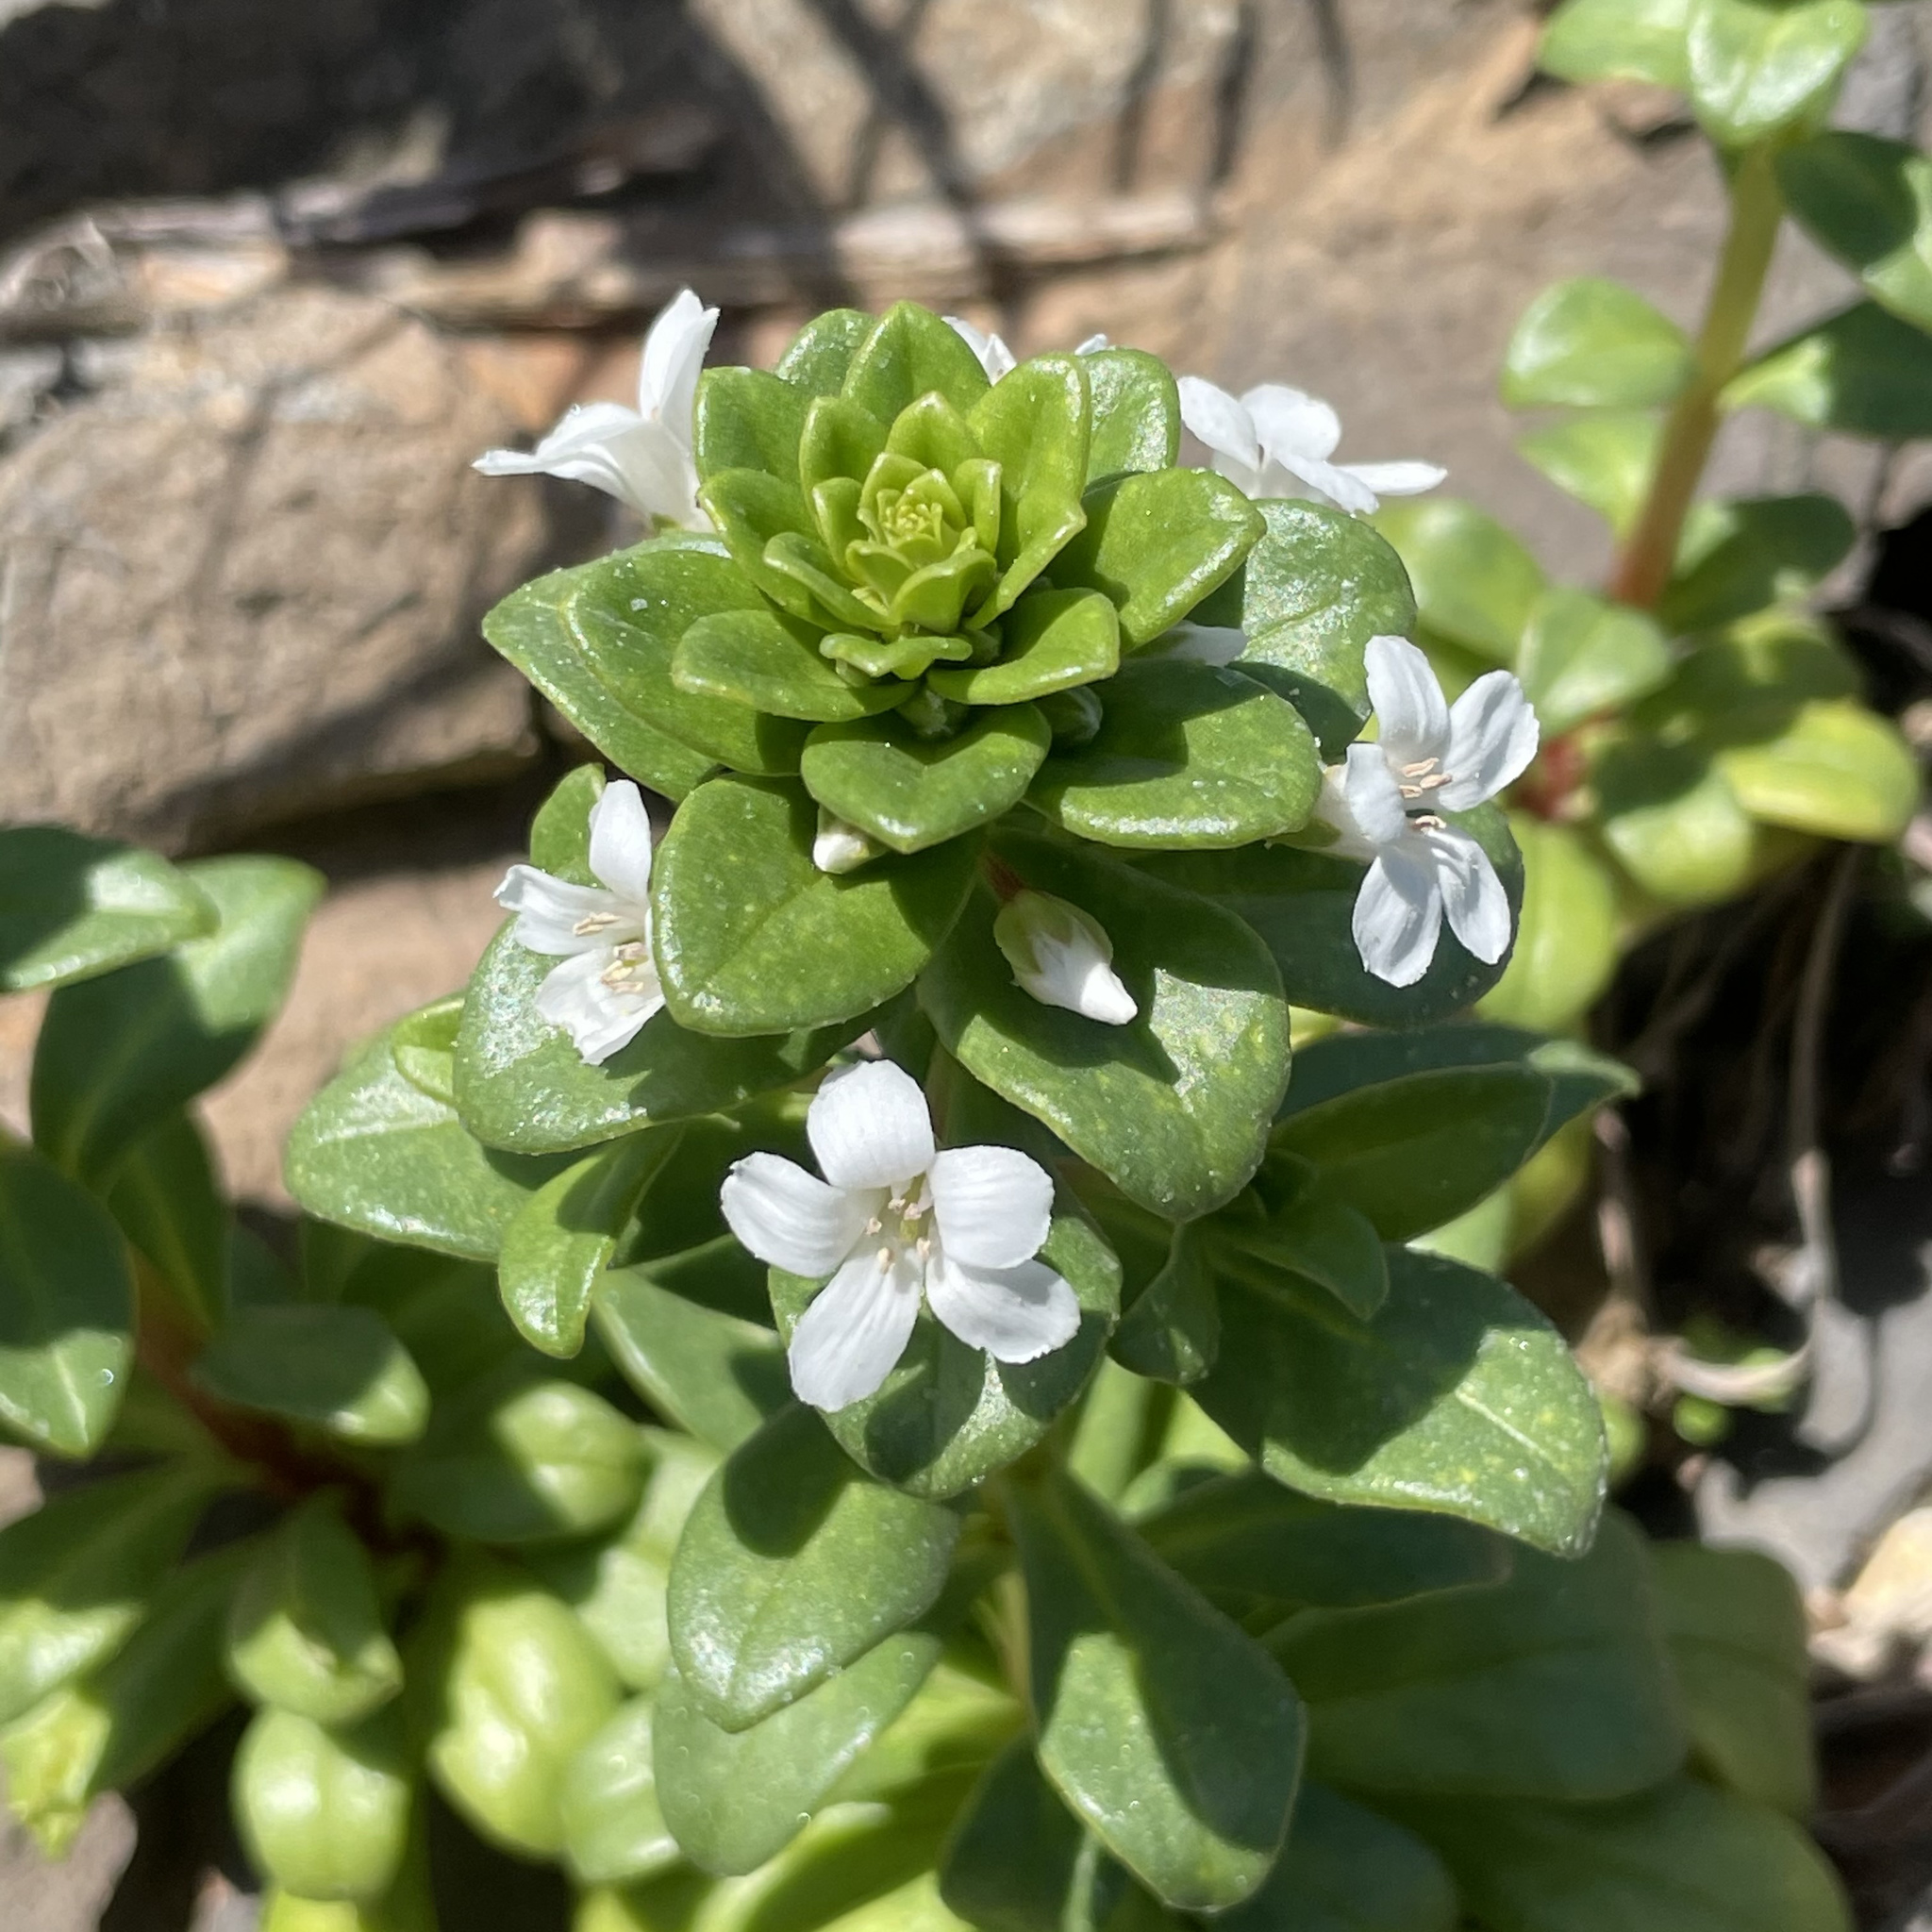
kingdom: Plantae
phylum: Tracheophyta
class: Magnoliopsida
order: Ericales
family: Primulaceae
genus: Lysimachia
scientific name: Lysimachia mauritiana
